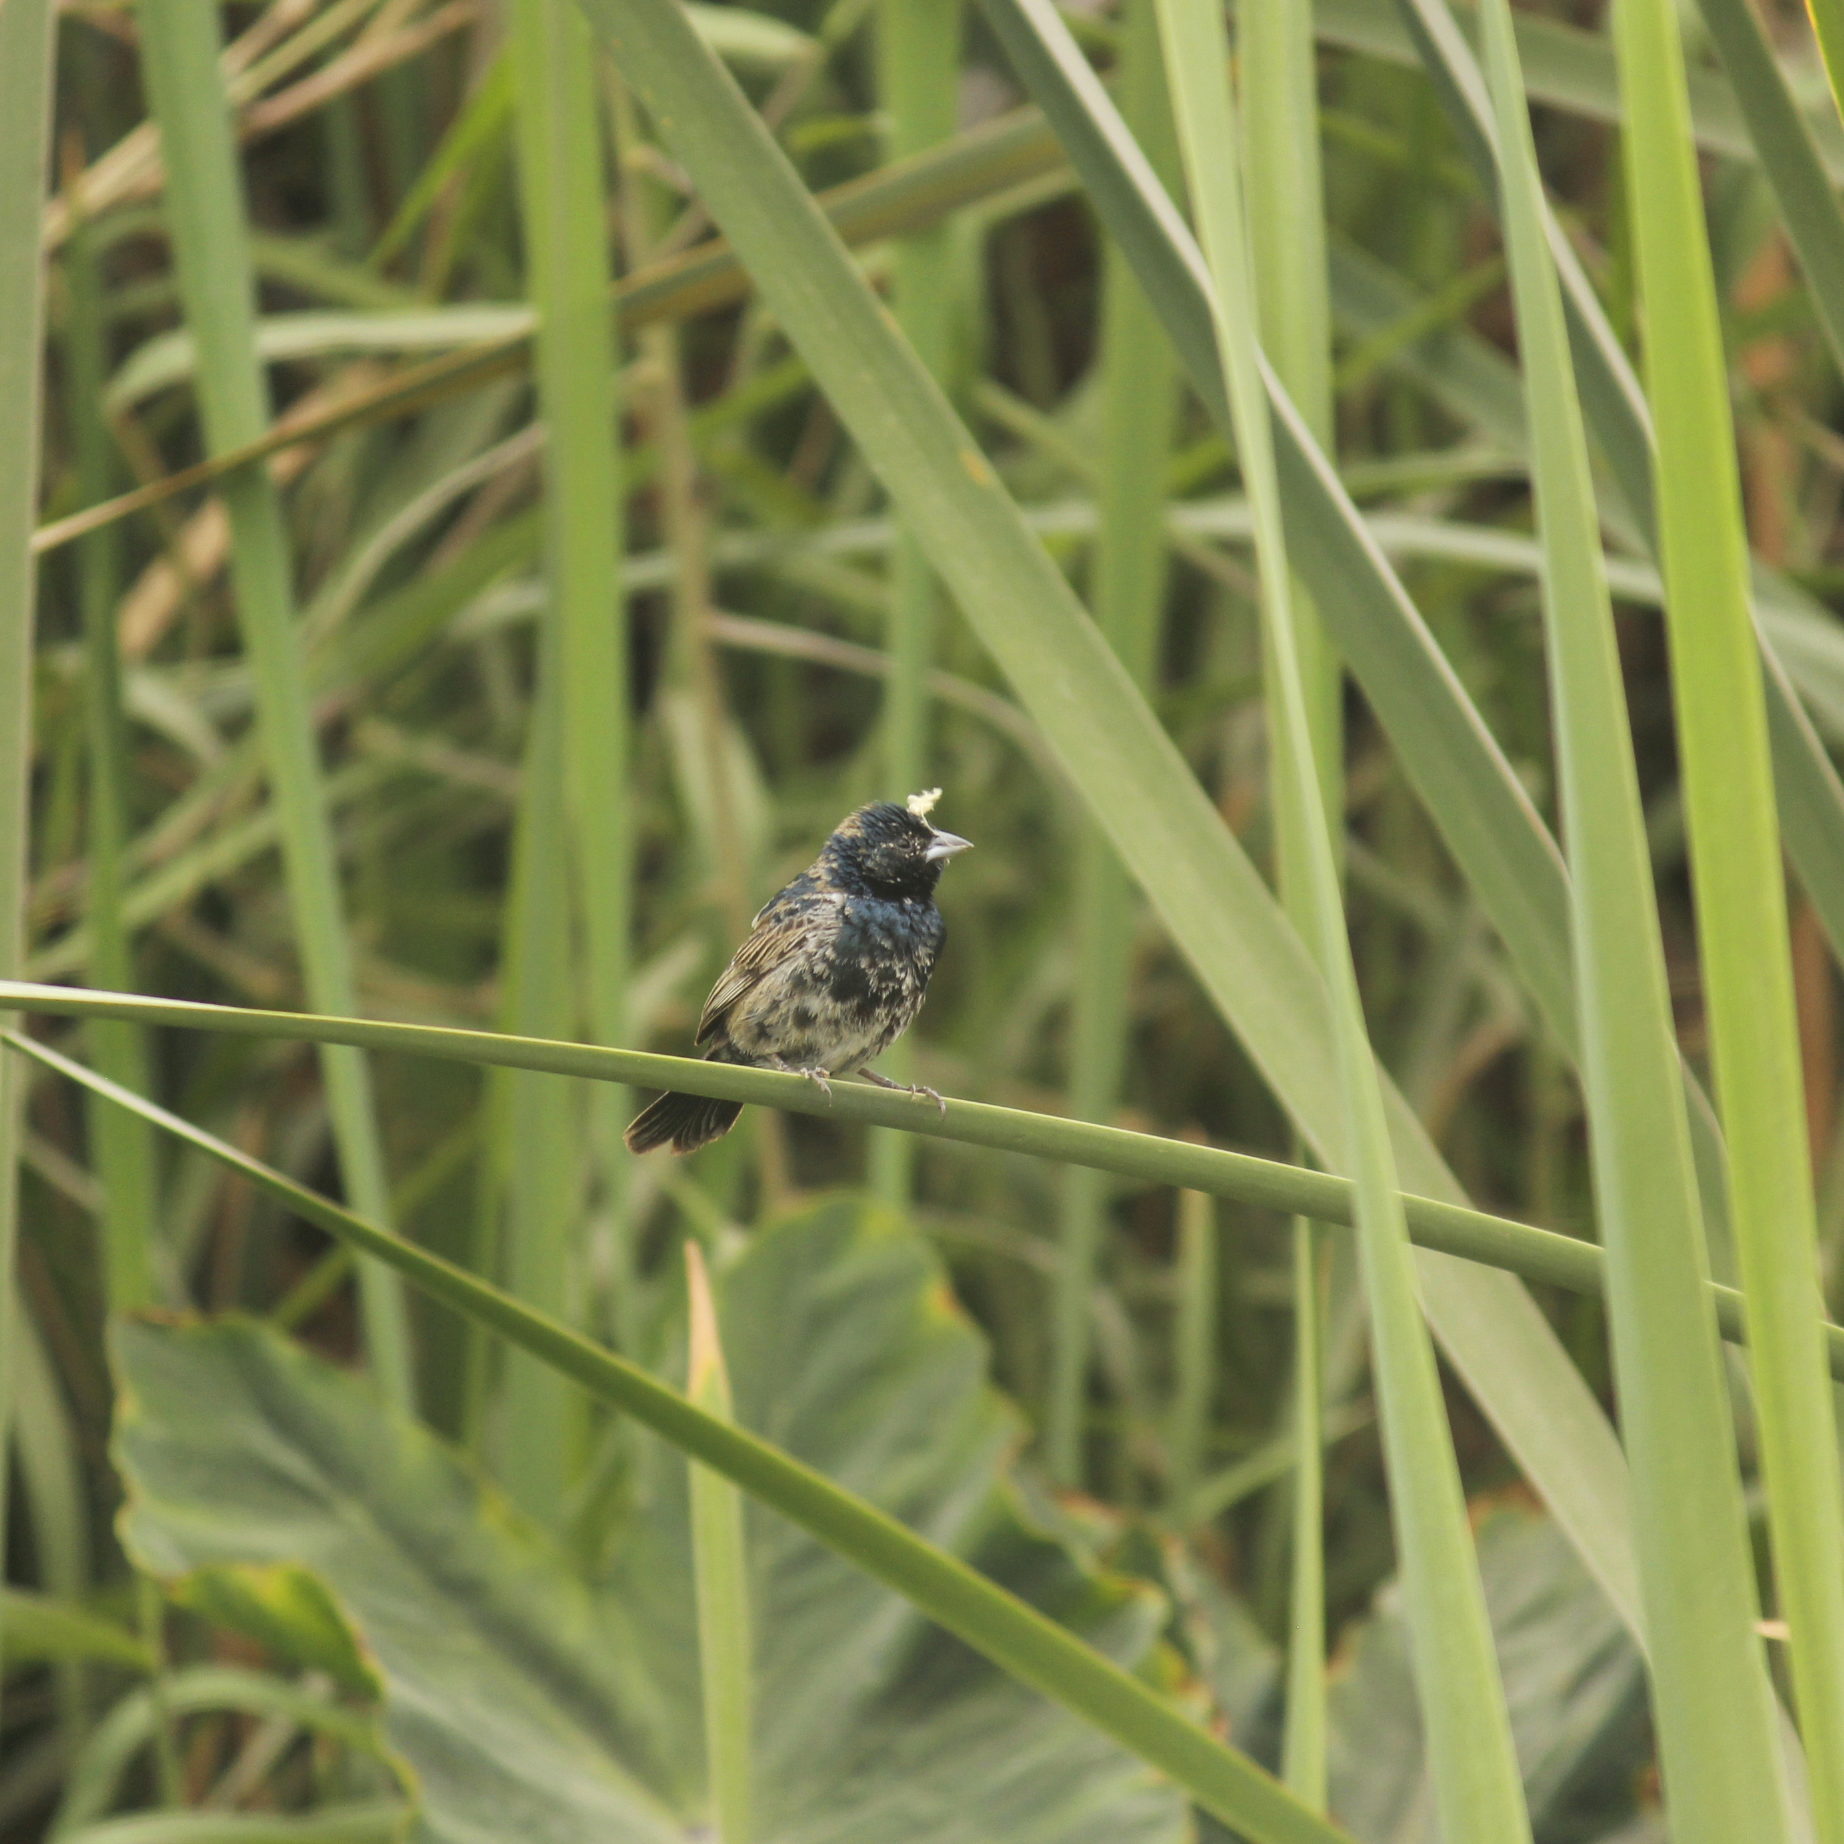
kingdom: Animalia
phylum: Chordata
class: Aves
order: Passeriformes
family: Thraupidae
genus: Volatinia
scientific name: Volatinia jacarina
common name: Blue-black grassquit
